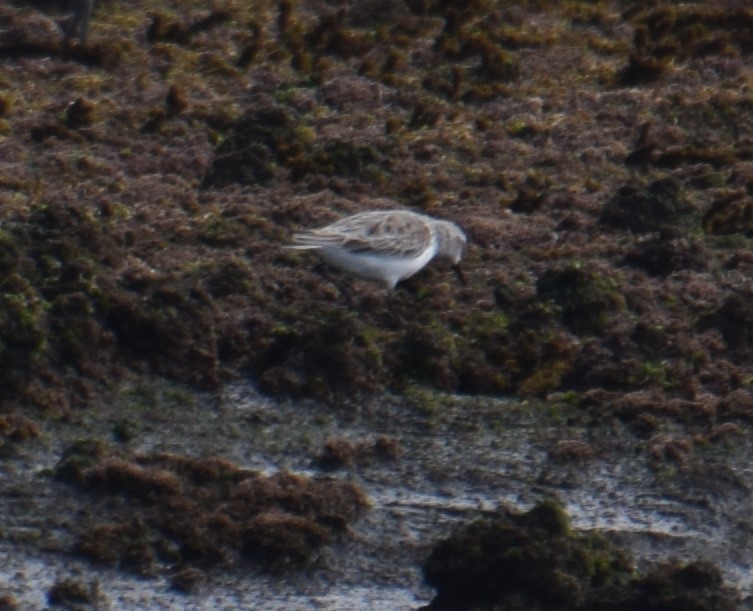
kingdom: Animalia
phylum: Chordata
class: Aves
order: Charadriiformes
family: Scolopacidae
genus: Calidris
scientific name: Calidris ruficollis
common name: Red-necked stint
